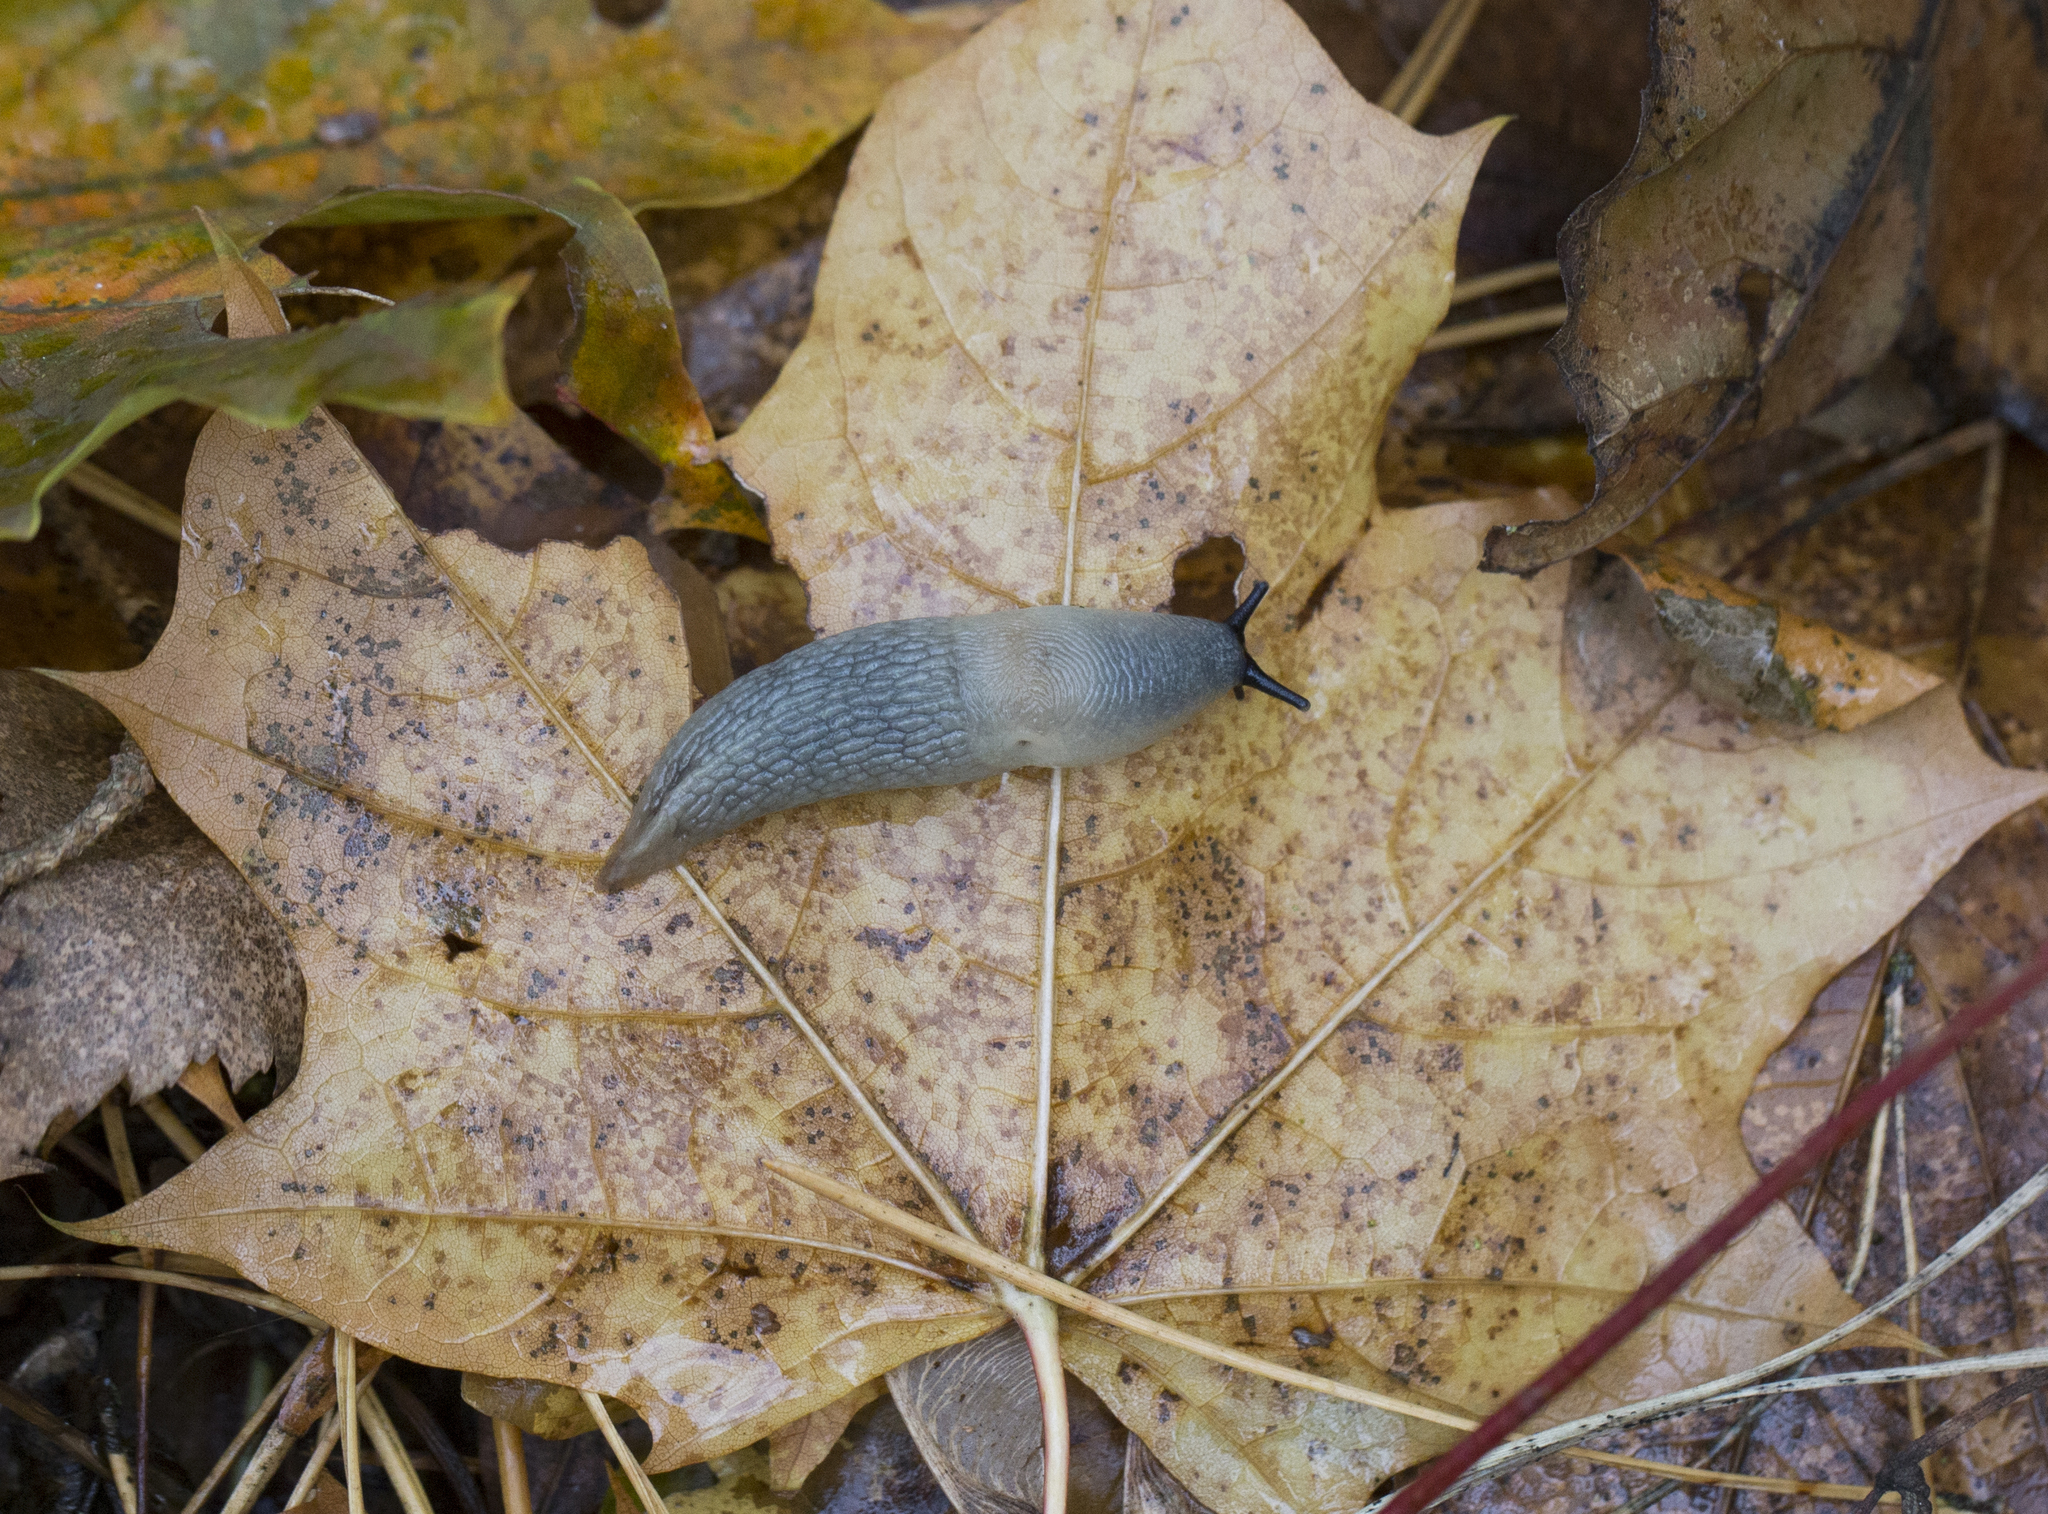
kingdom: Animalia
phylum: Mollusca
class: Gastropoda
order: Stylommatophora
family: Agriolimacidae
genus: Krynickillus
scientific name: Krynickillus melanocephalus
